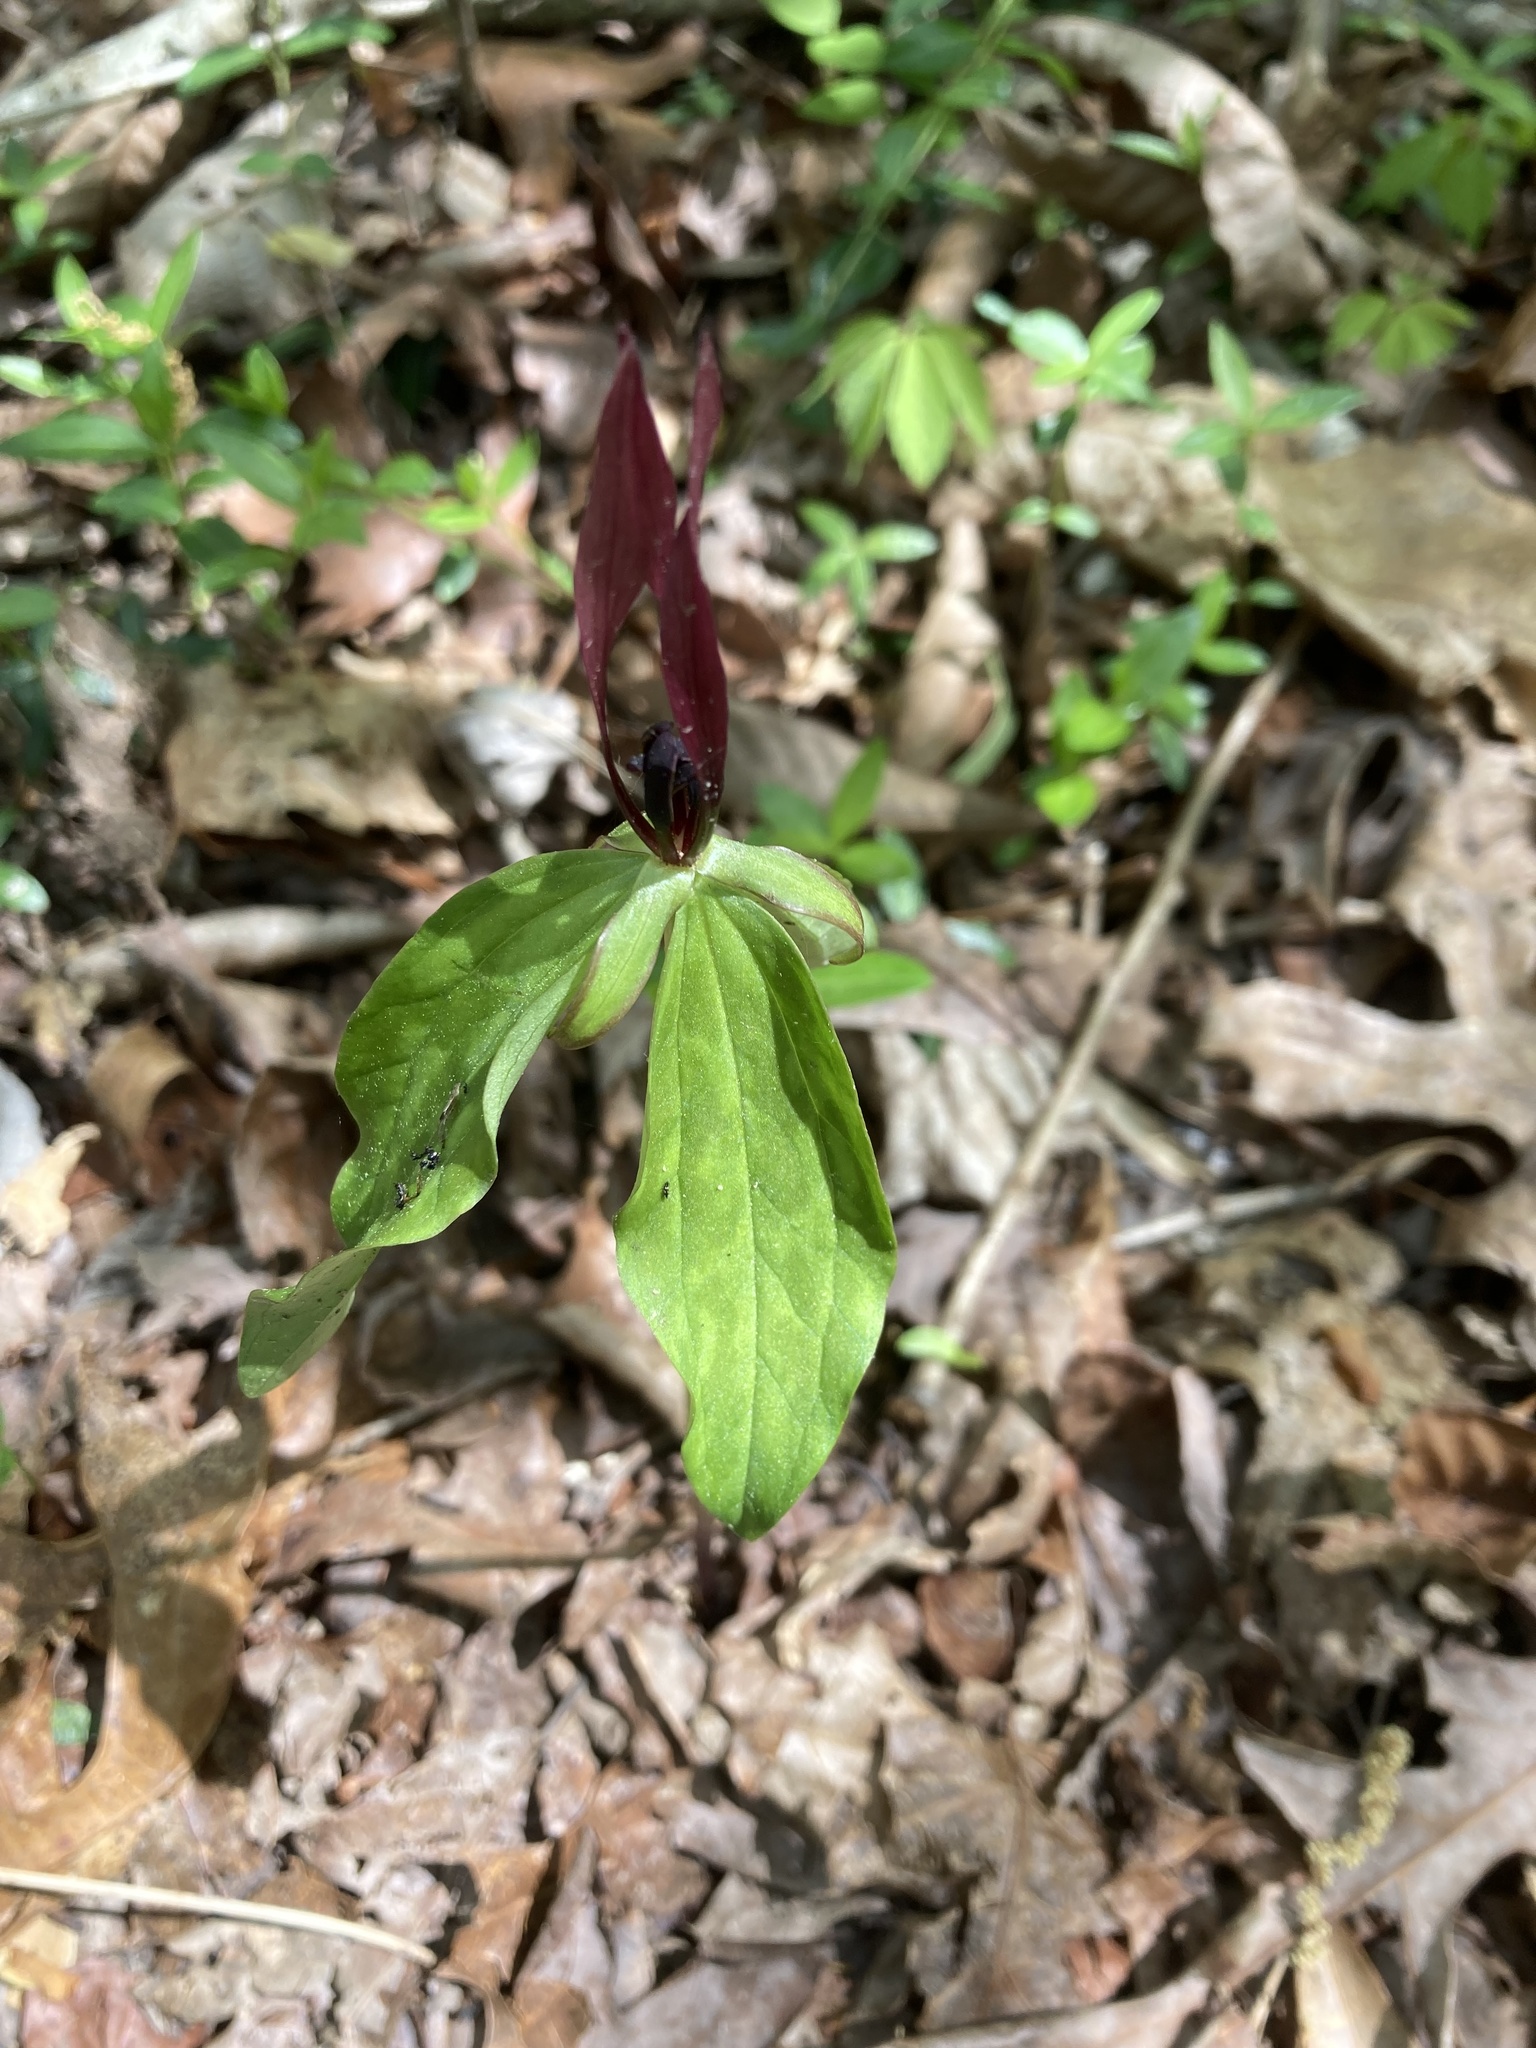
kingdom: Plantae
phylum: Tracheophyta
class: Liliopsida
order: Liliales
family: Melanthiaceae
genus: Trillium
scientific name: Trillium lancifolium
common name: Lance-leaved trillium
